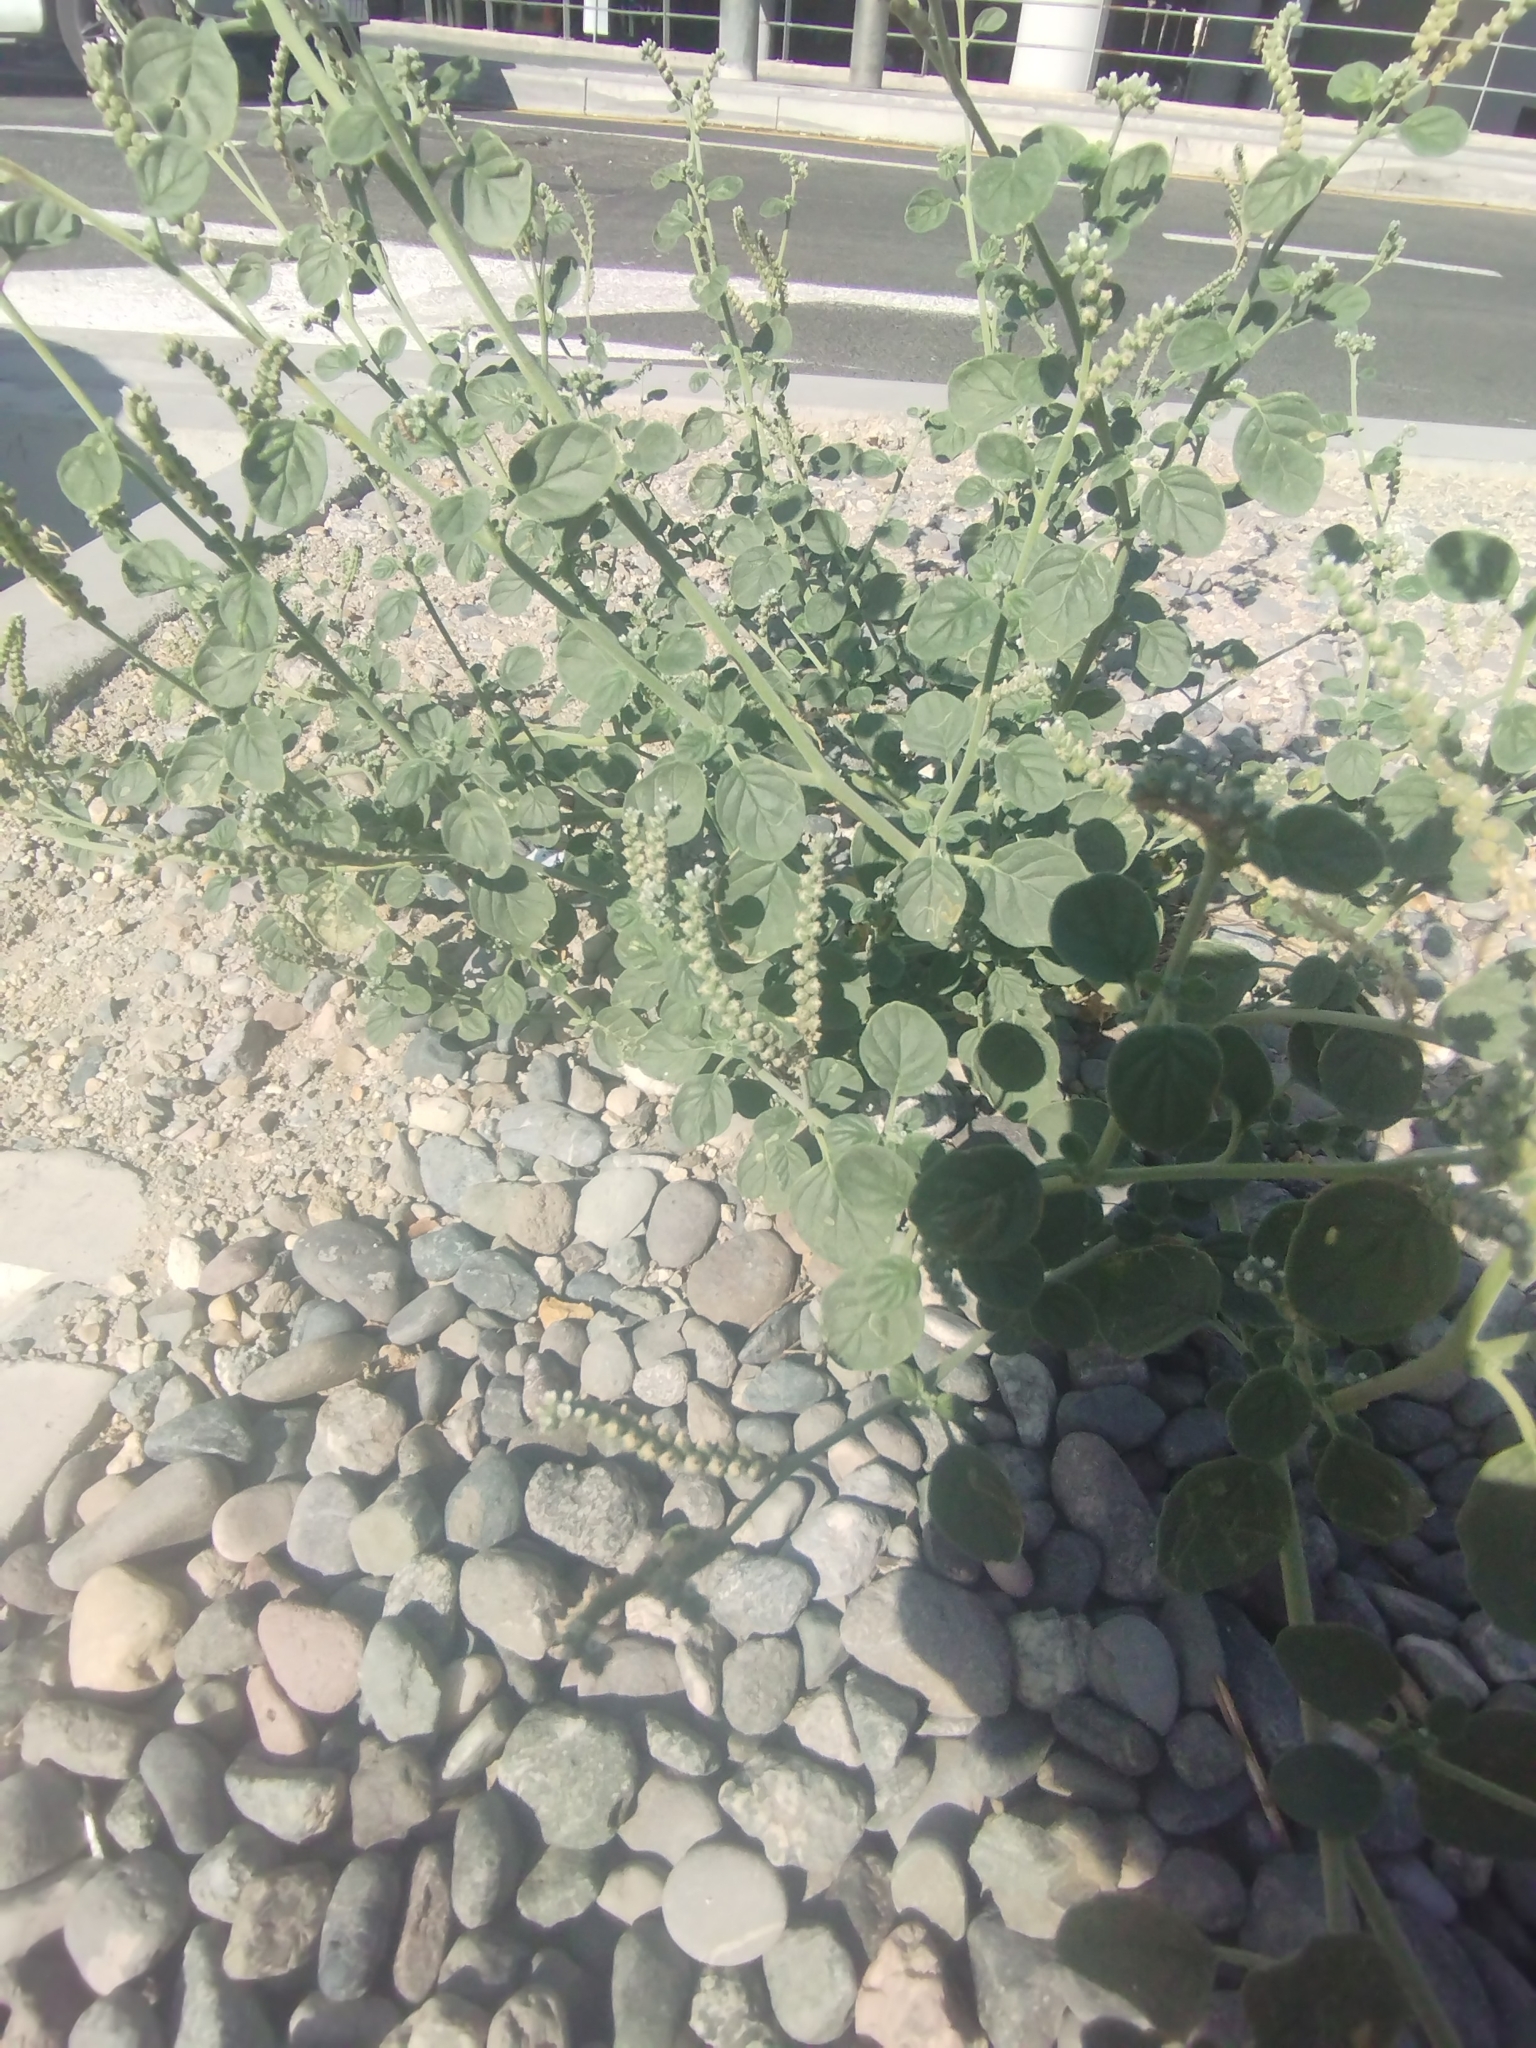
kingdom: Plantae
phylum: Tracheophyta
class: Magnoliopsida
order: Boraginales
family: Heliotropiaceae
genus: Heliotropium
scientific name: Heliotropium europaeum
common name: European heliotrope
